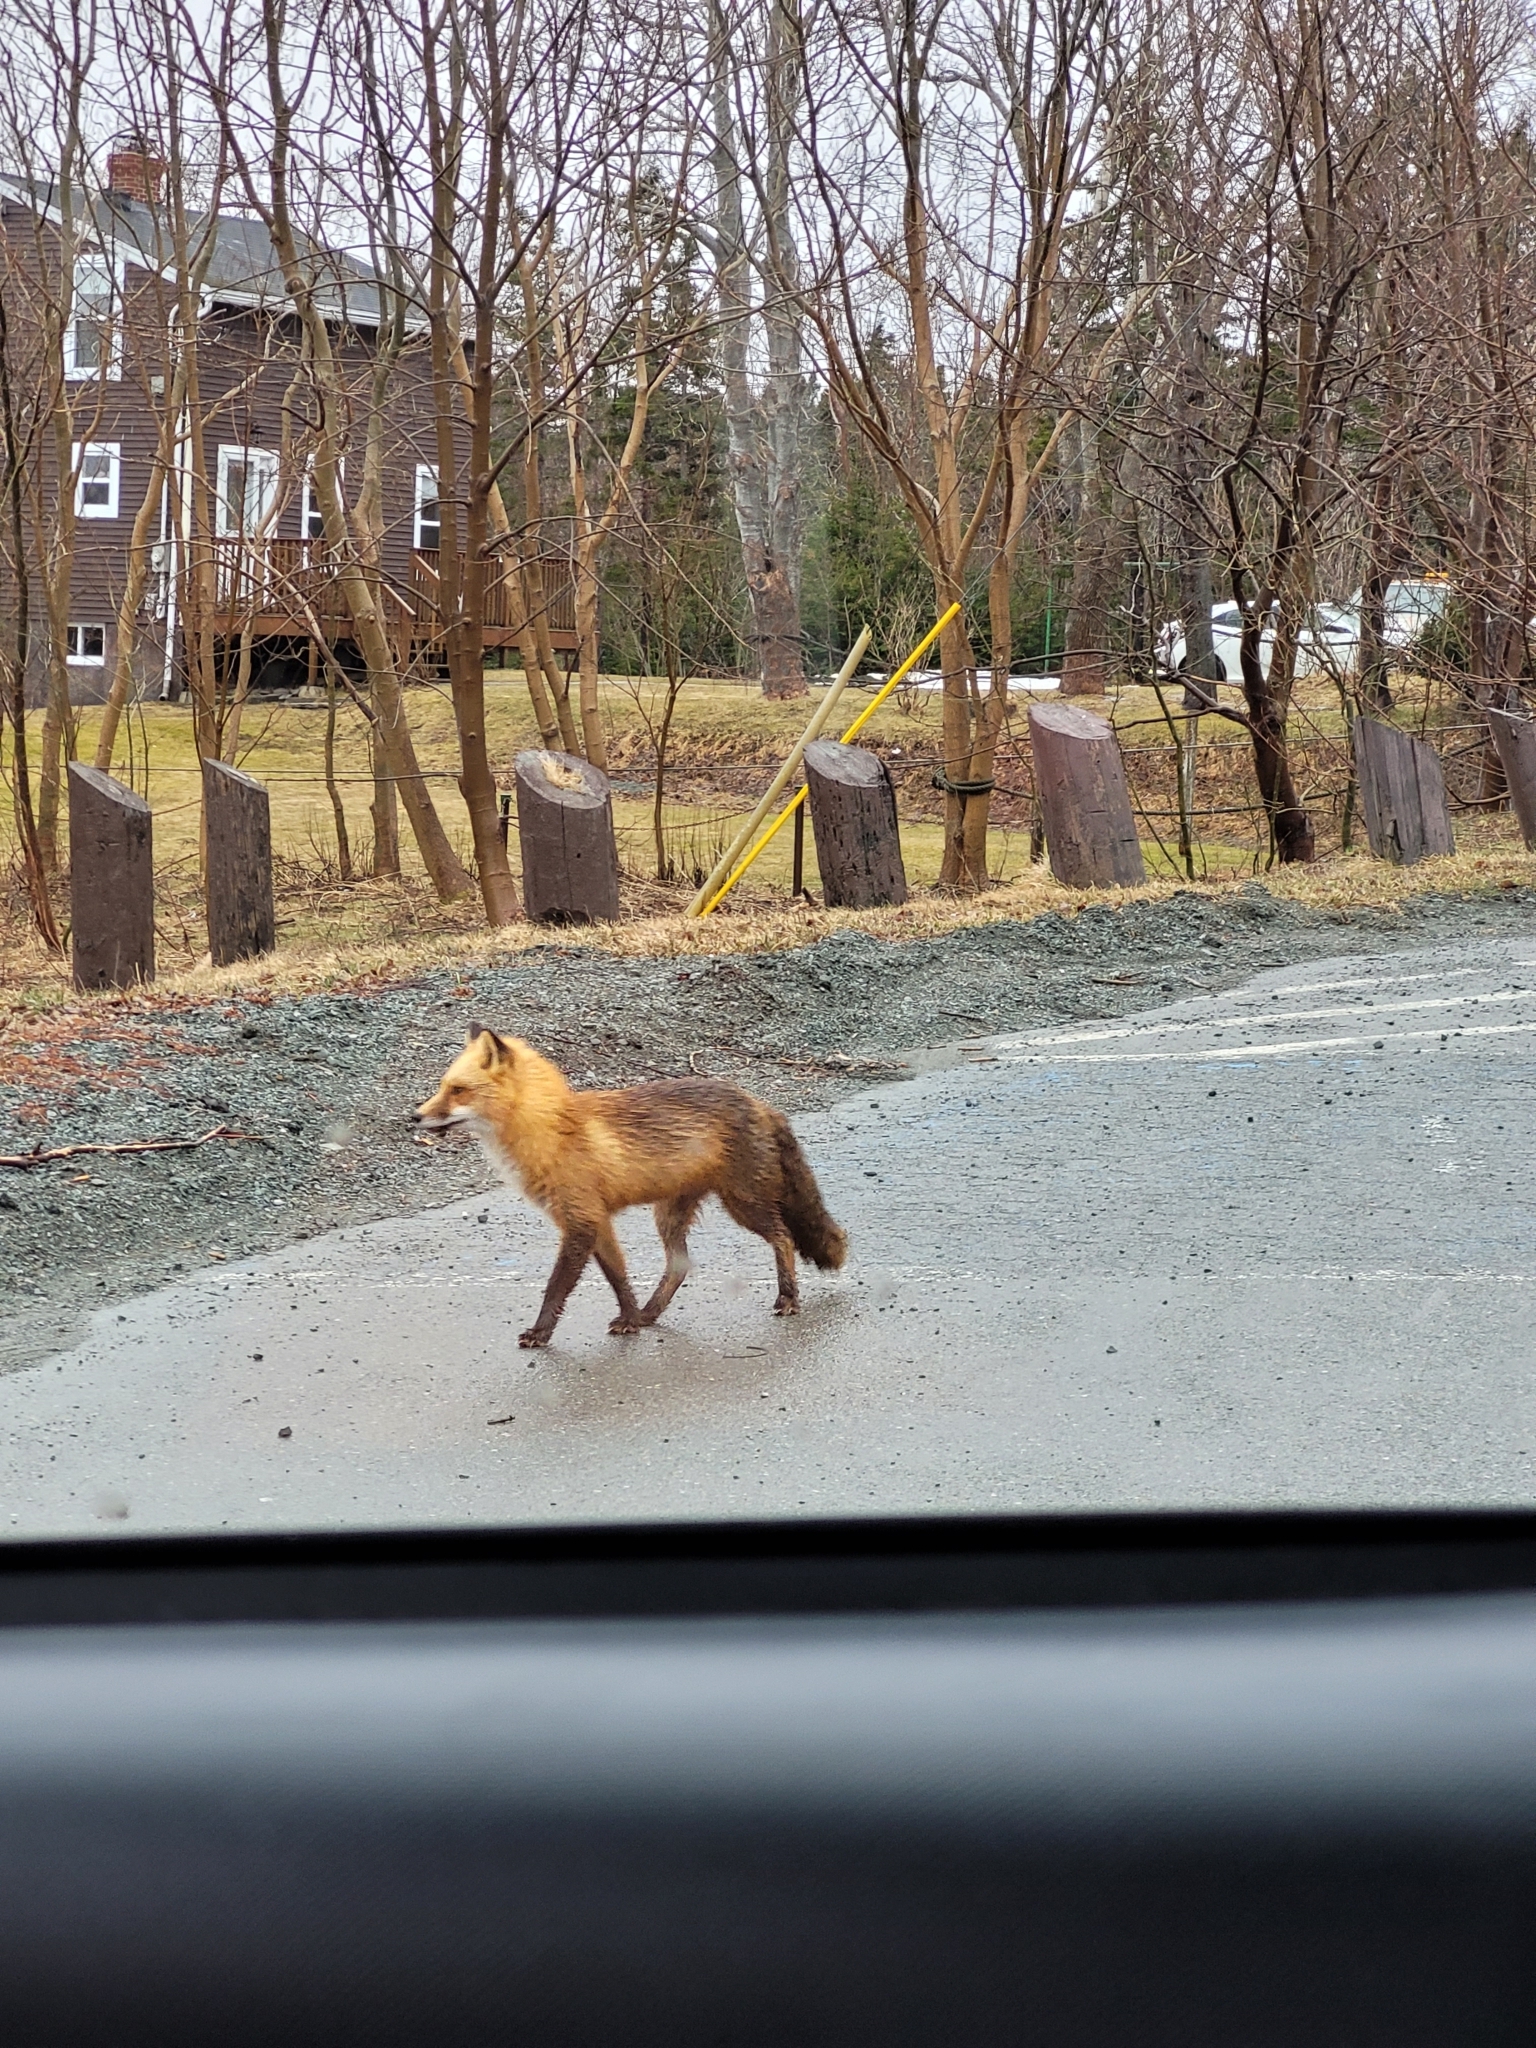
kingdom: Animalia
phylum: Chordata
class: Mammalia
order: Carnivora
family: Canidae
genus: Vulpes
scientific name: Vulpes vulpes
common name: Red fox
